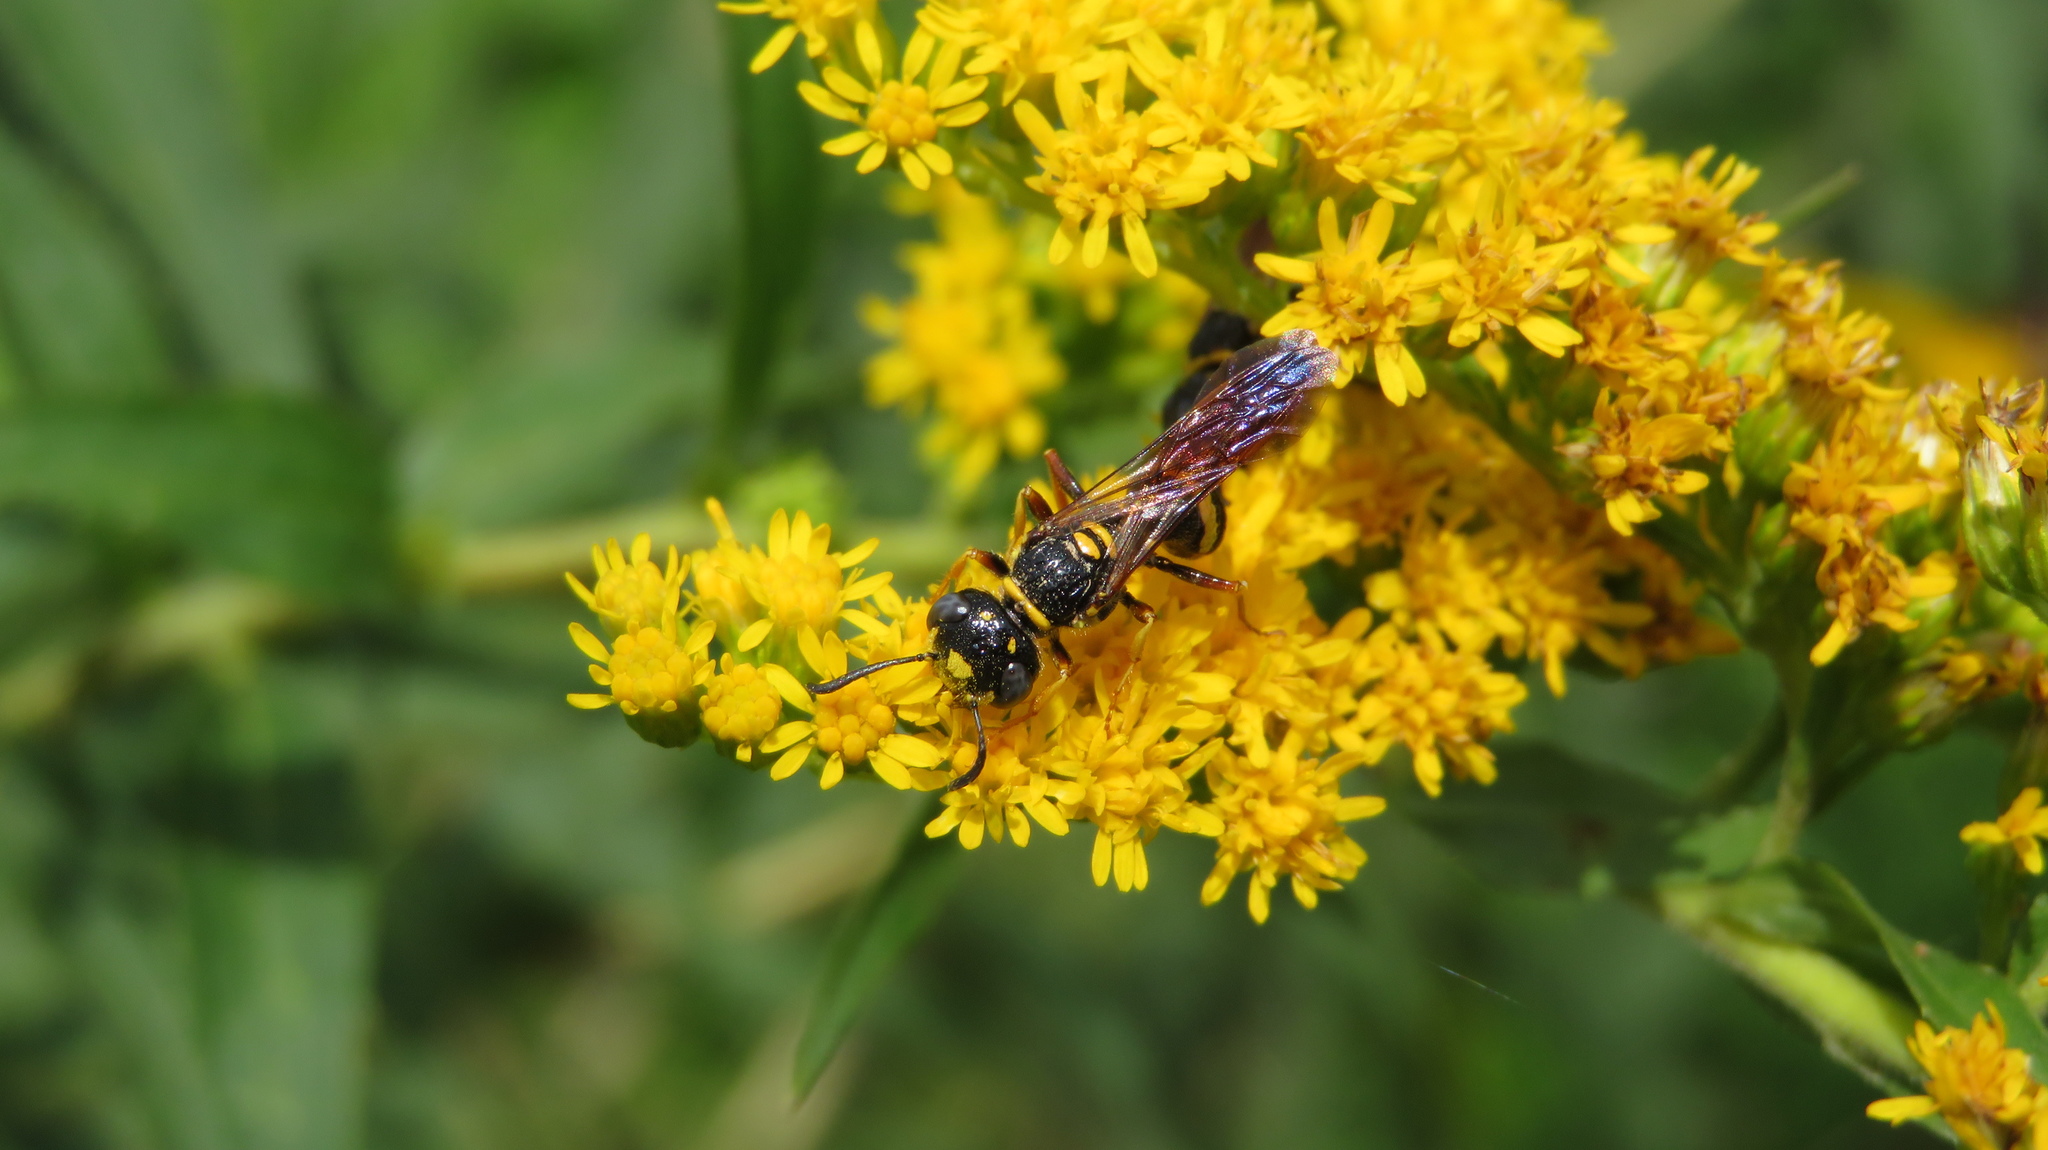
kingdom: Animalia
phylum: Arthropoda
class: Insecta
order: Hymenoptera
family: Crabronidae
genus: Philanthus
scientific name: Philanthus gibbosus
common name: Humped beewolf
